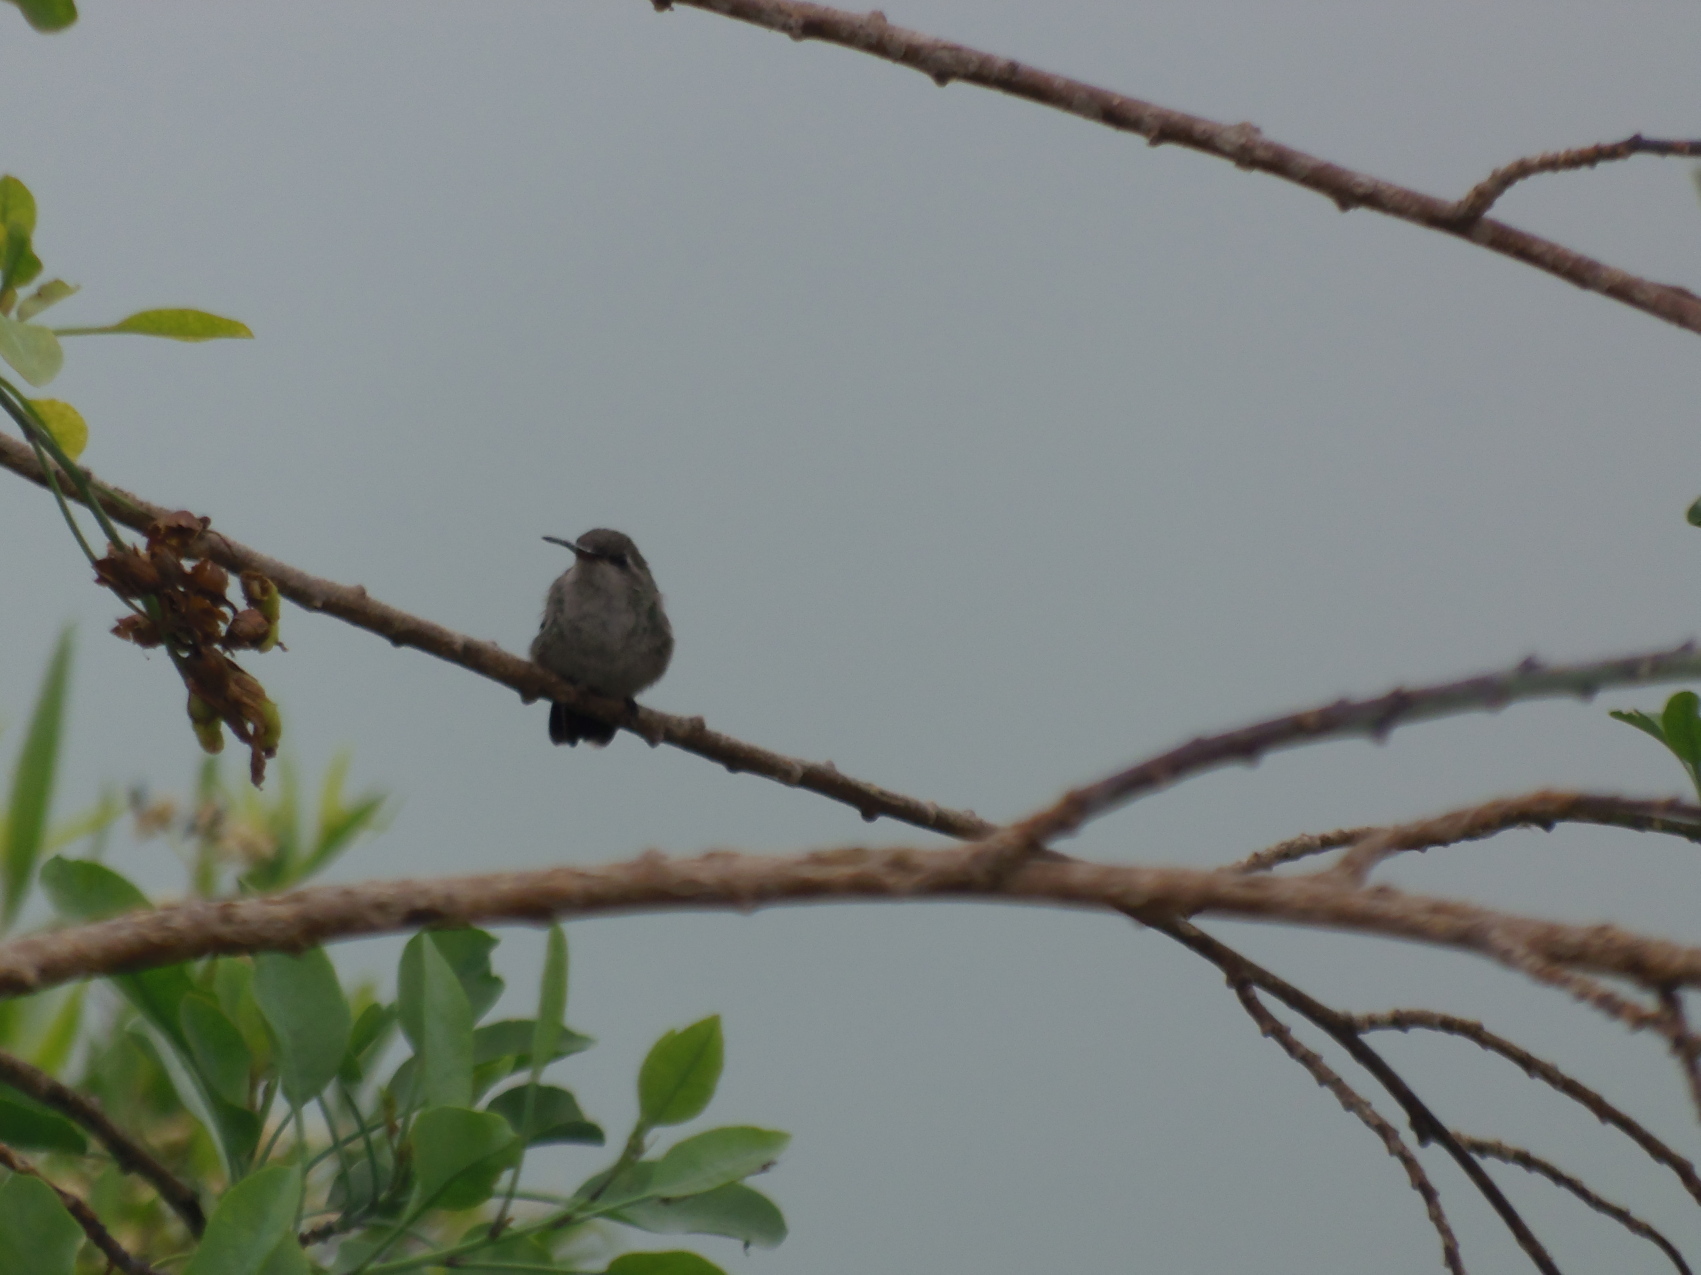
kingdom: Animalia
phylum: Chordata
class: Aves
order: Apodiformes
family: Trochilidae
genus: Cynanthus
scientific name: Cynanthus latirostris
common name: Broad-billed hummingbird
